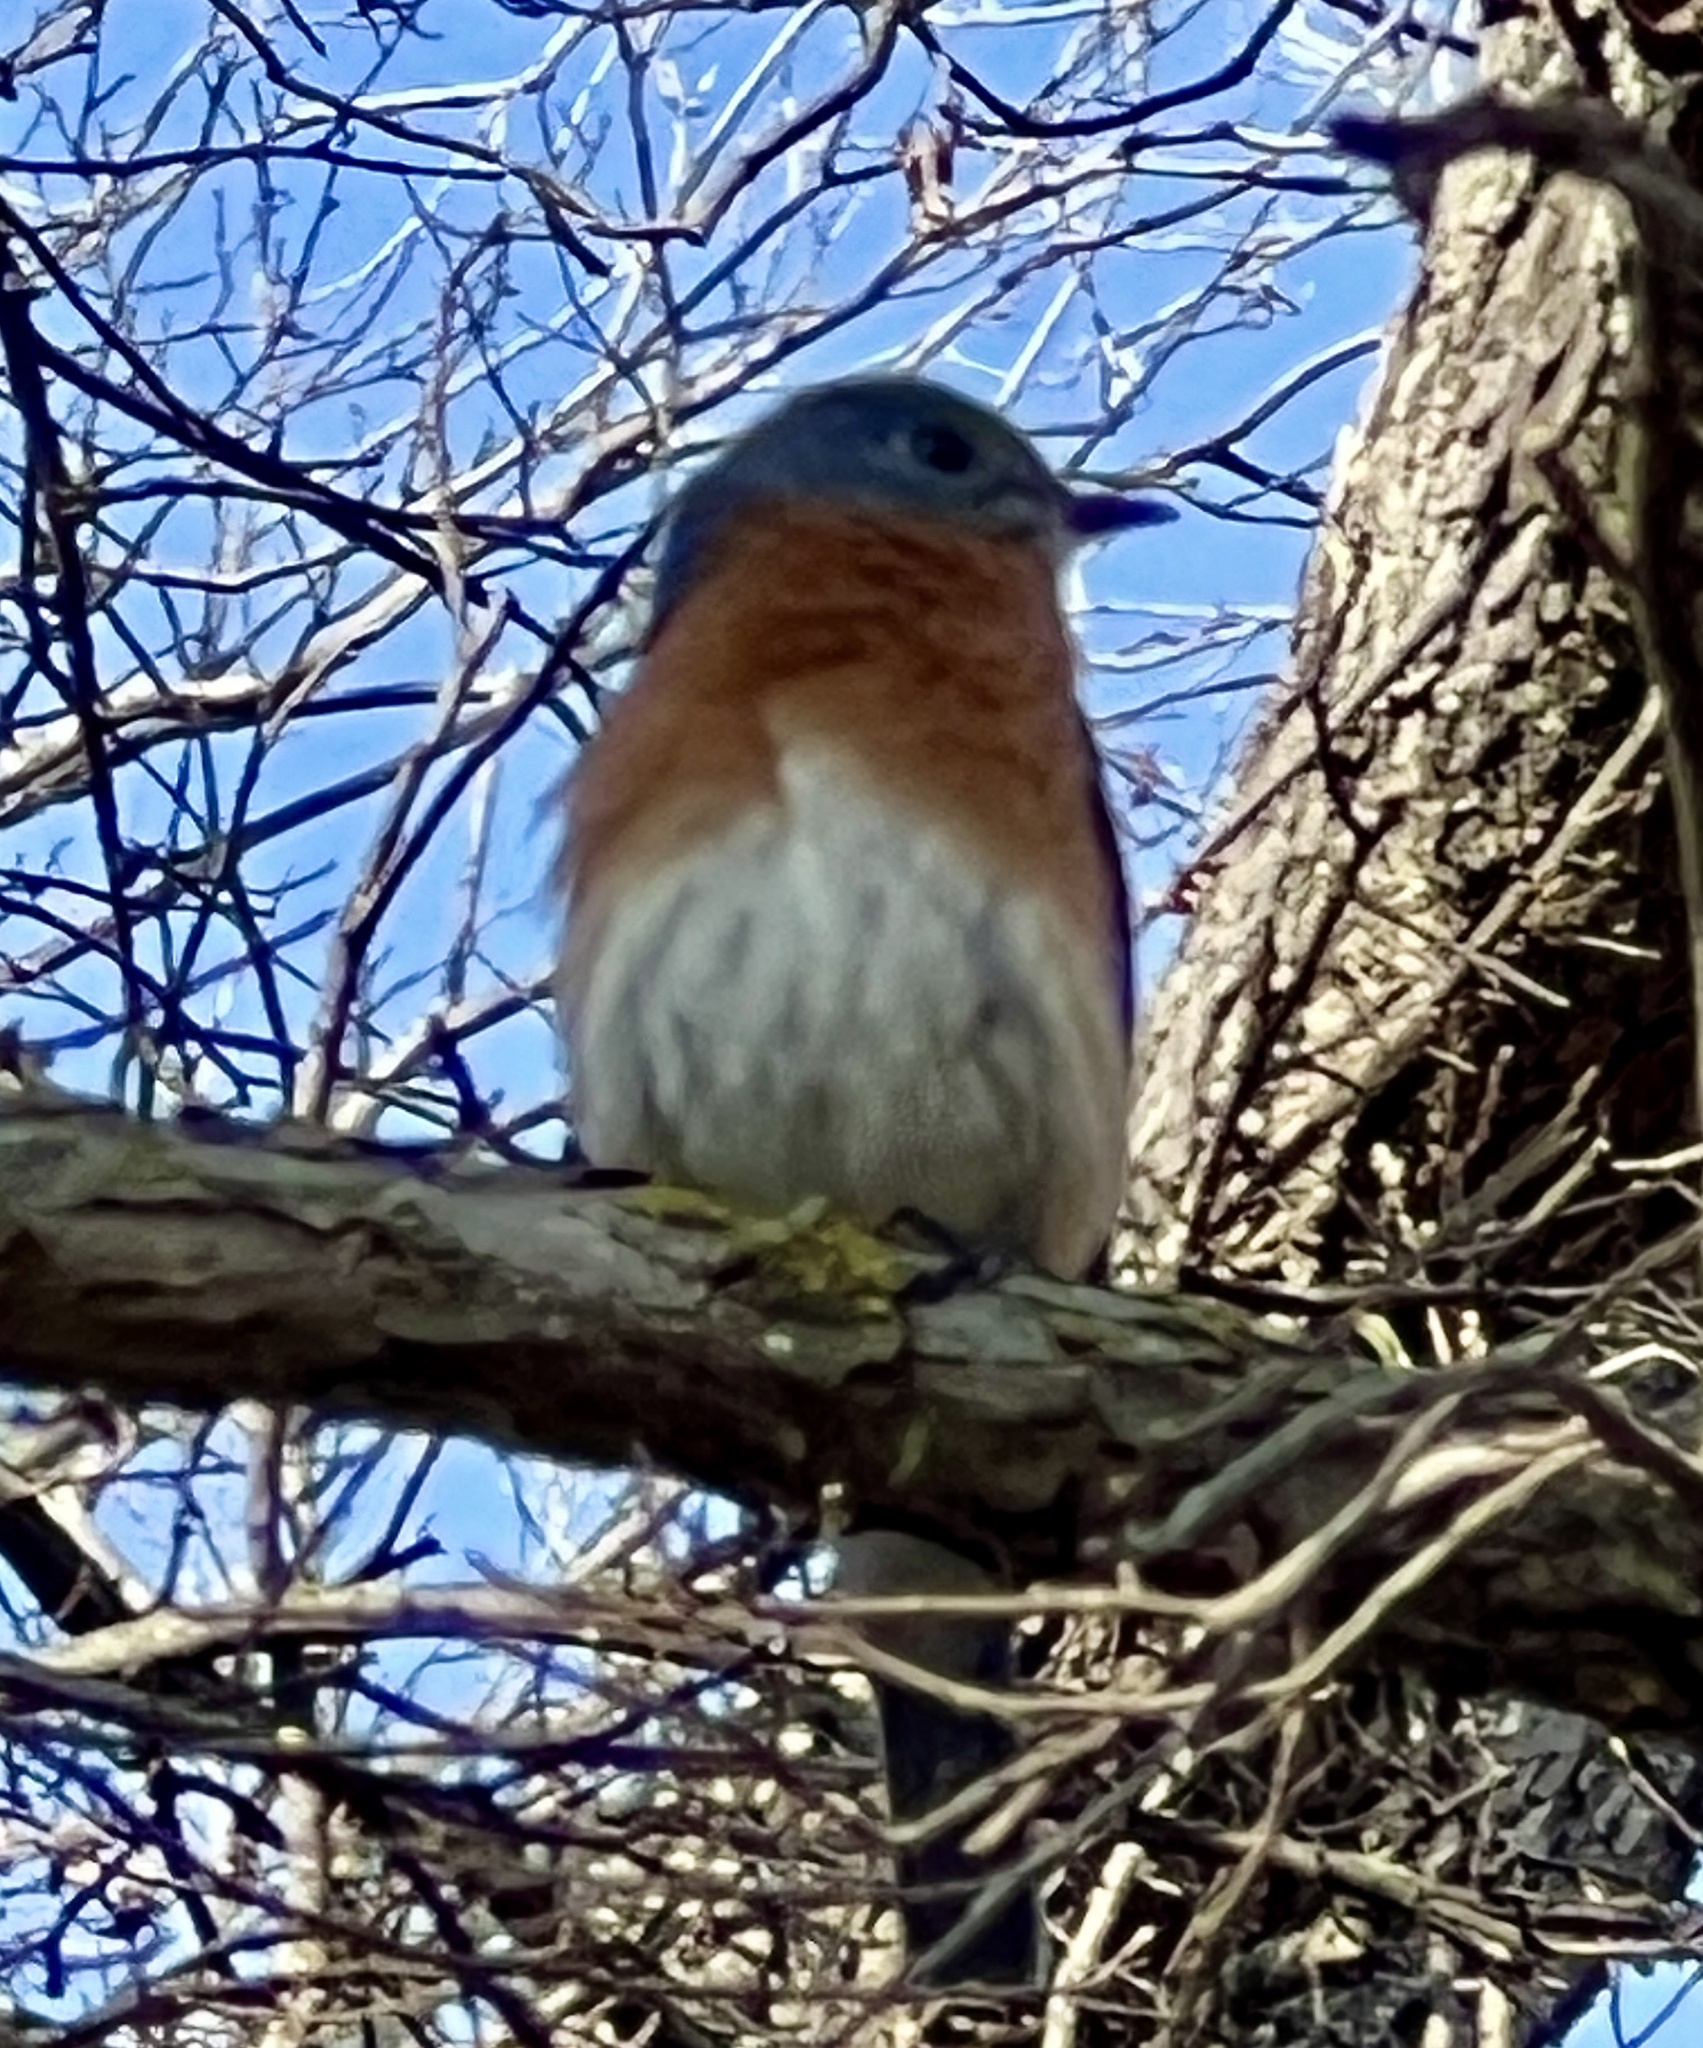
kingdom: Animalia
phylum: Chordata
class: Aves
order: Passeriformes
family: Turdidae
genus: Sialia
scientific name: Sialia sialis
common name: Eastern bluebird
